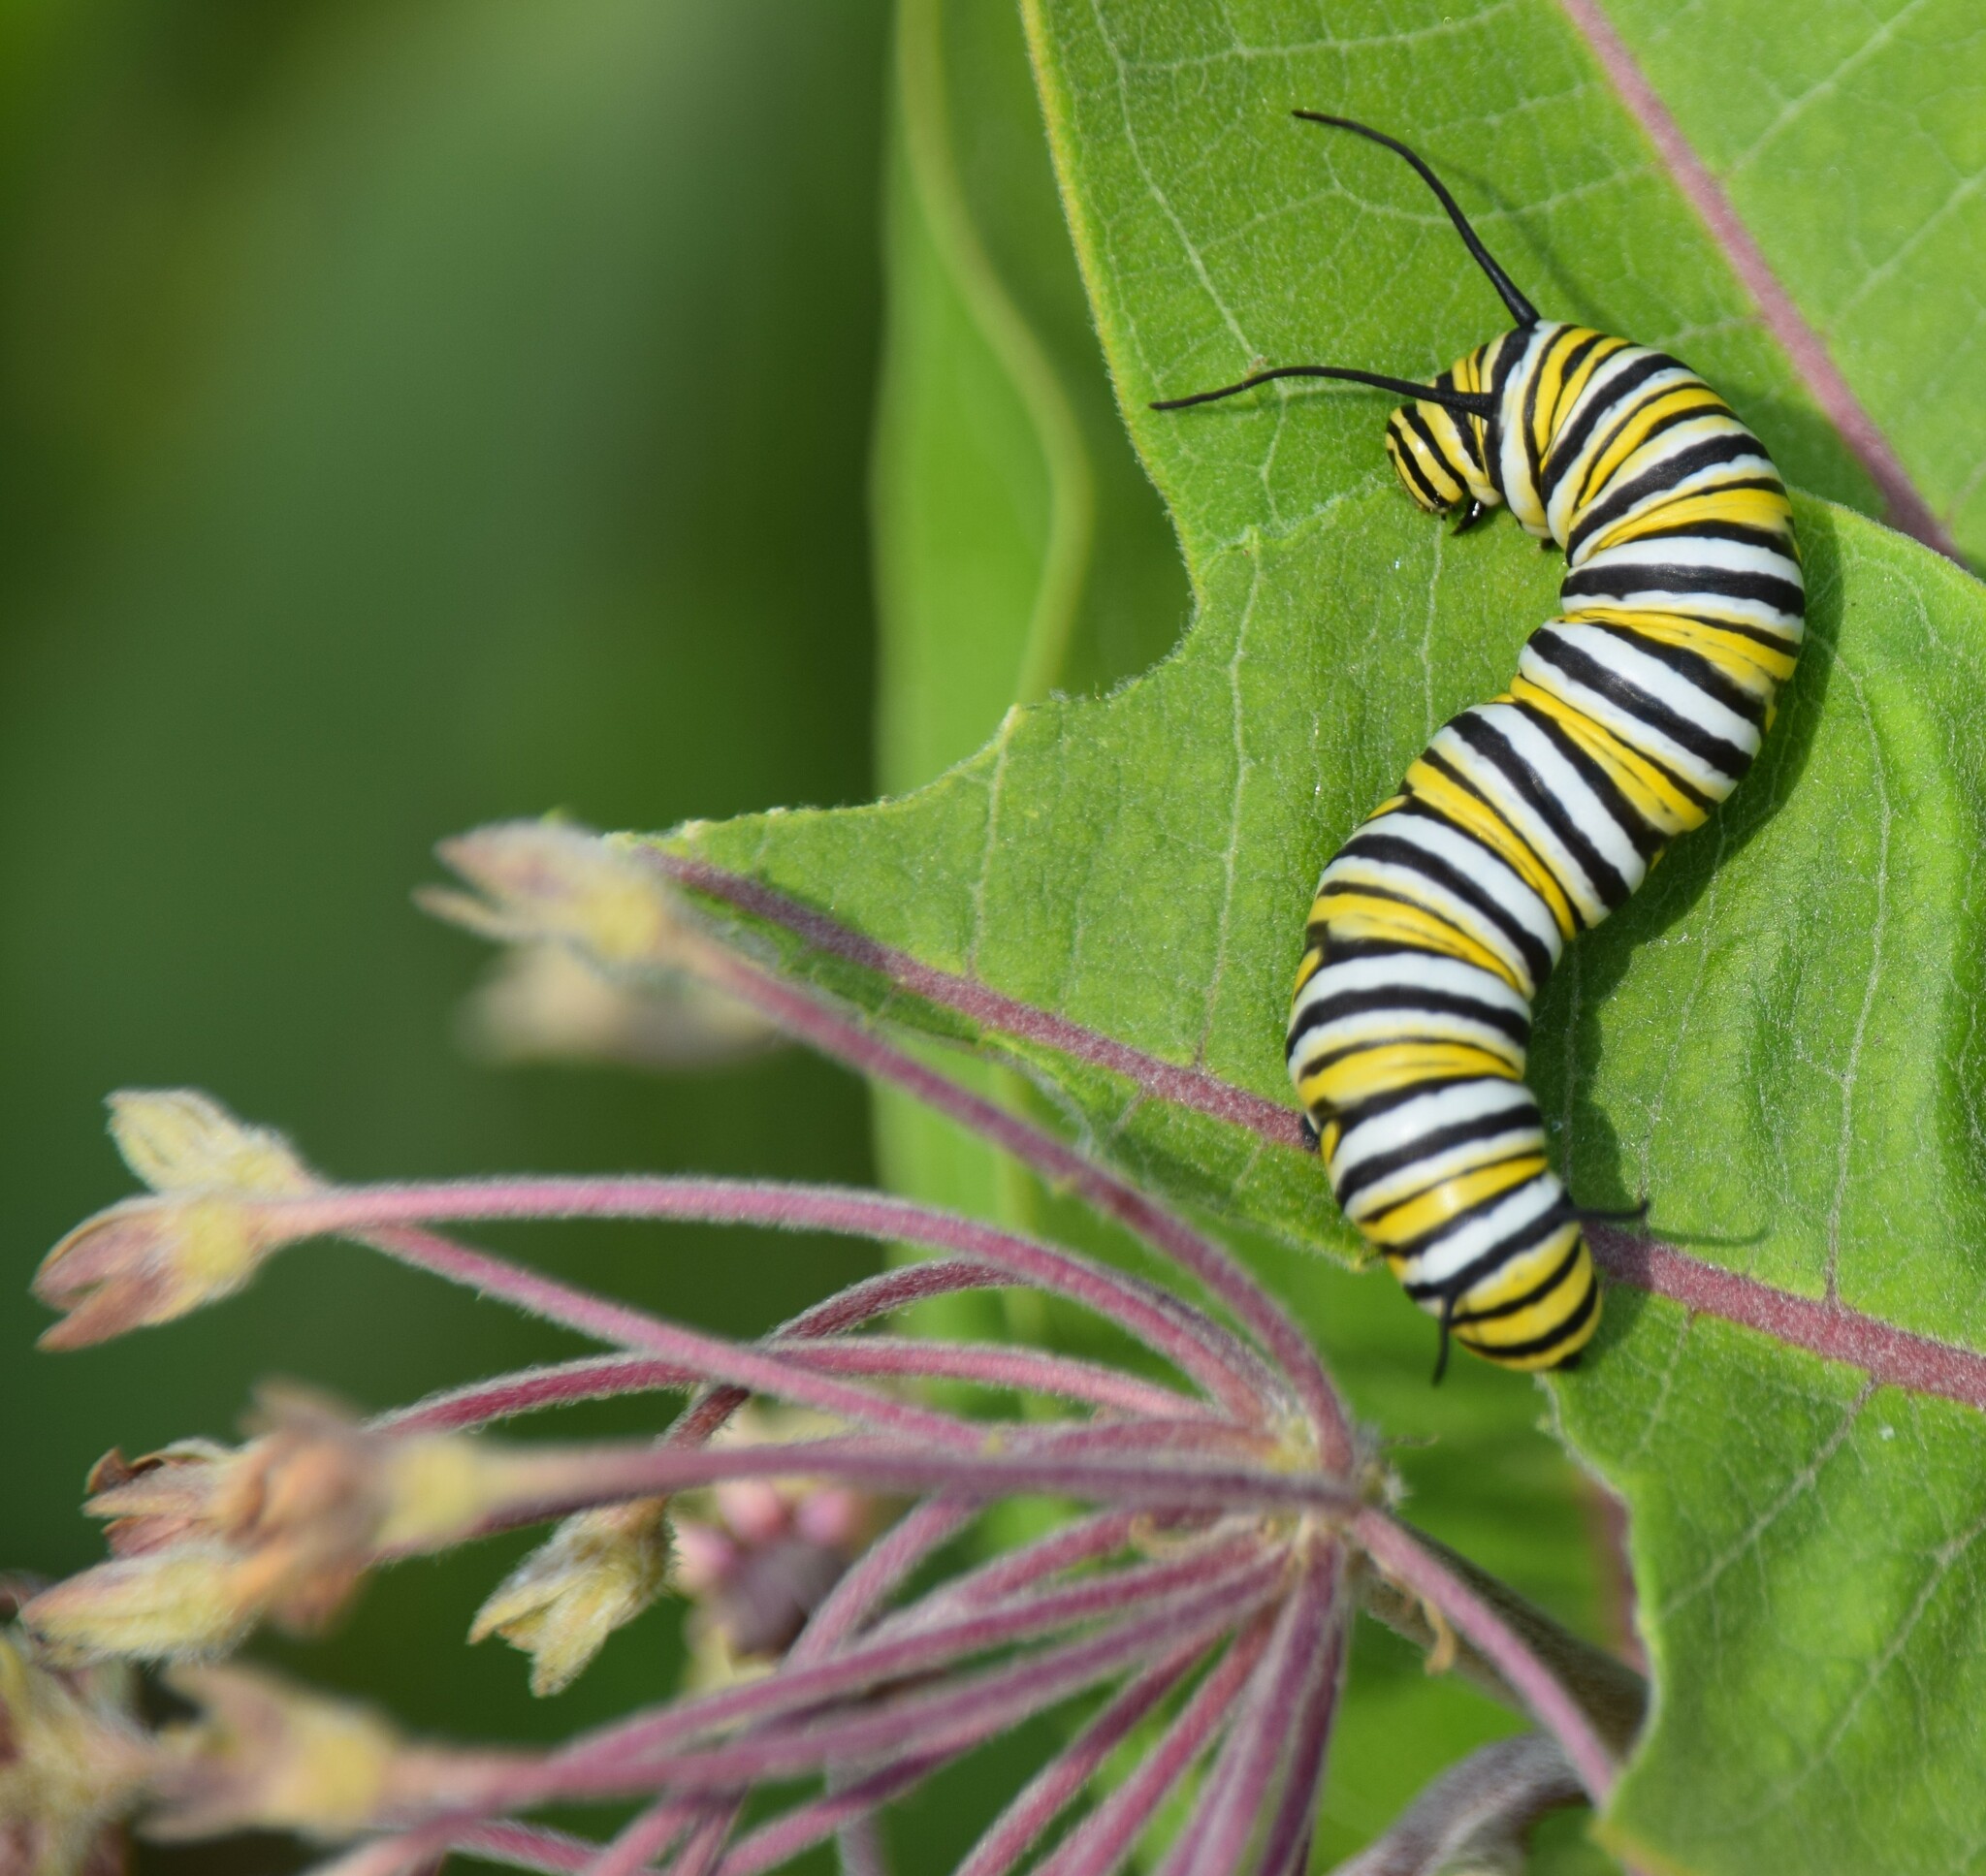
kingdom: Animalia
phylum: Arthropoda
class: Insecta
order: Lepidoptera
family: Nymphalidae
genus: Danaus
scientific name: Danaus plexippus
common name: Monarch
